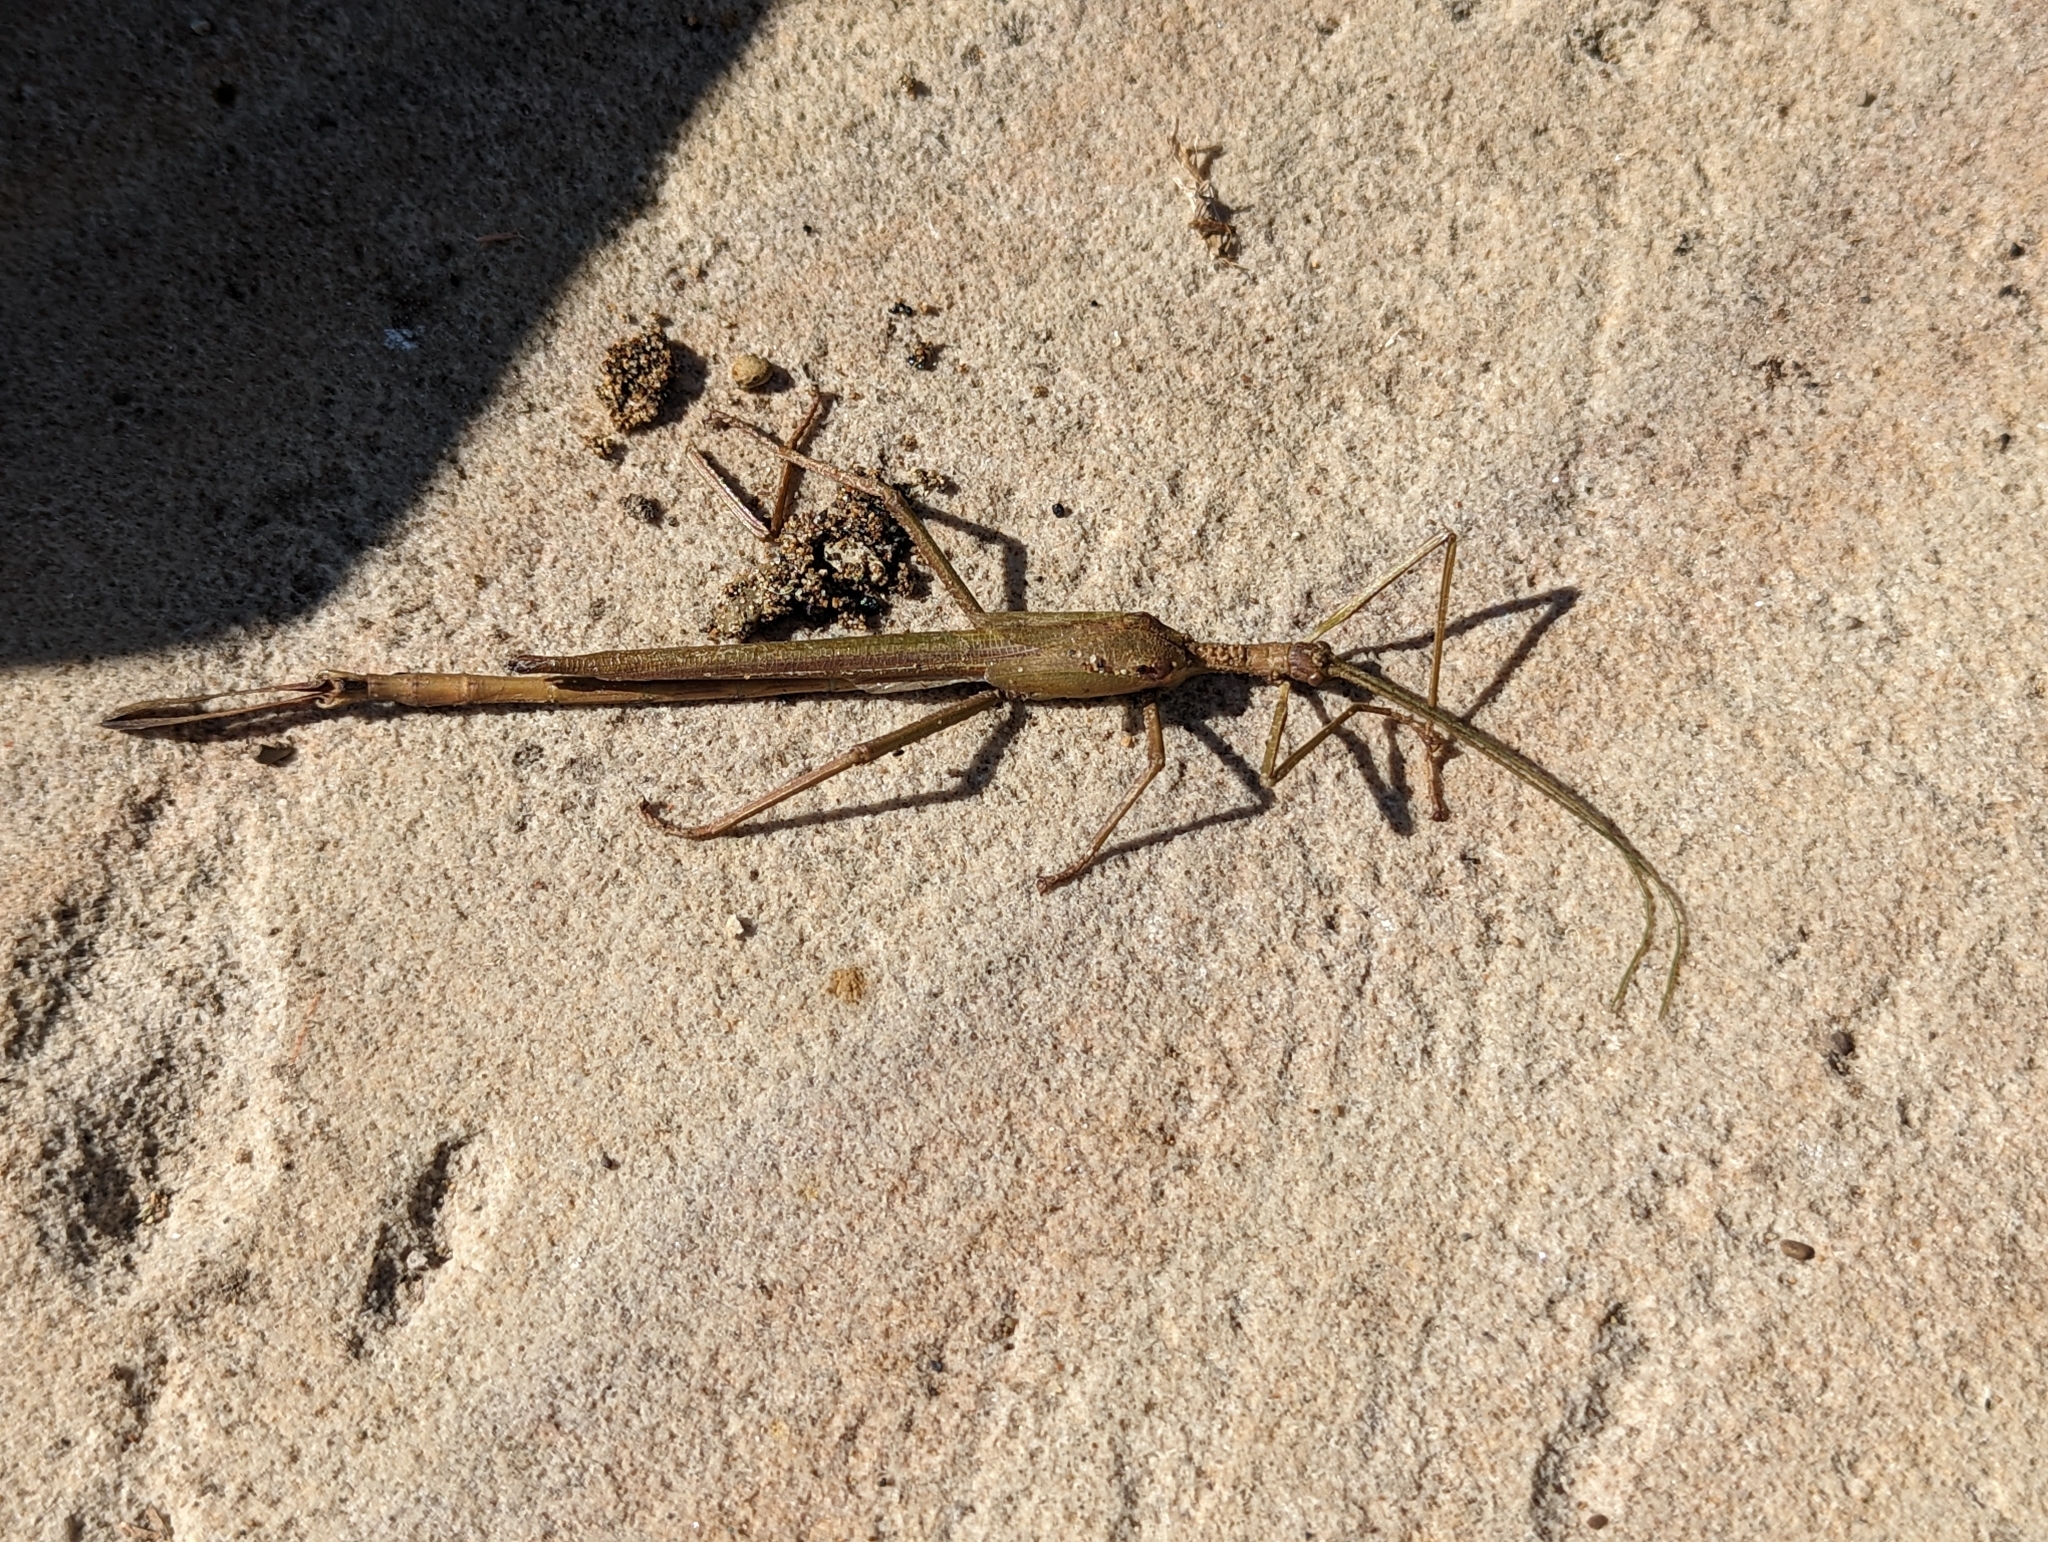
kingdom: Animalia
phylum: Arthropoda
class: Insecta
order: Phasmida
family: Phasmatidae
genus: Podacanthus
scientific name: Podacanthus typhon
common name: Large pink-winged stick-insect
